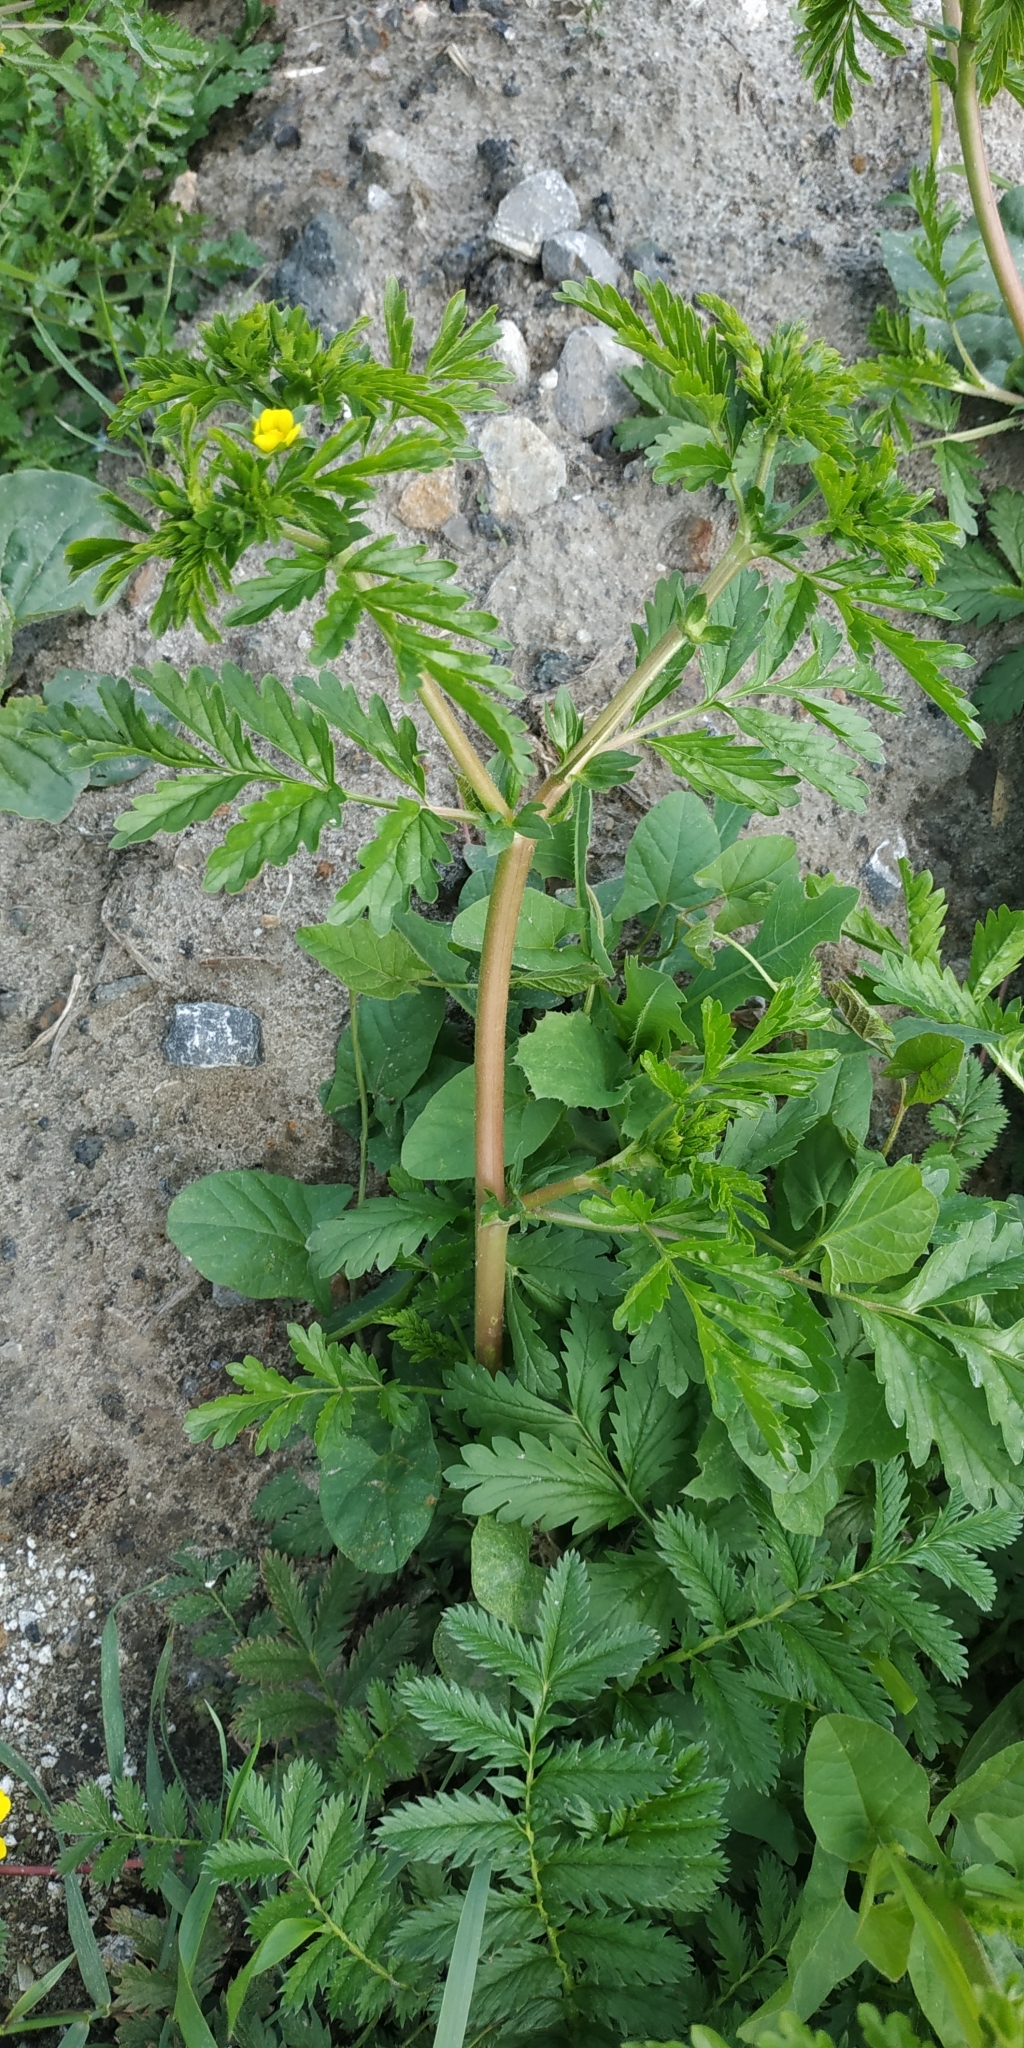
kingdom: Plantae
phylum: Tracheophyta
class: Magnoliopsida
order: Rosales
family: Rosaceae
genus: Potentilla
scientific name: Potentilla supina
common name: Prostrate cinquefoil
